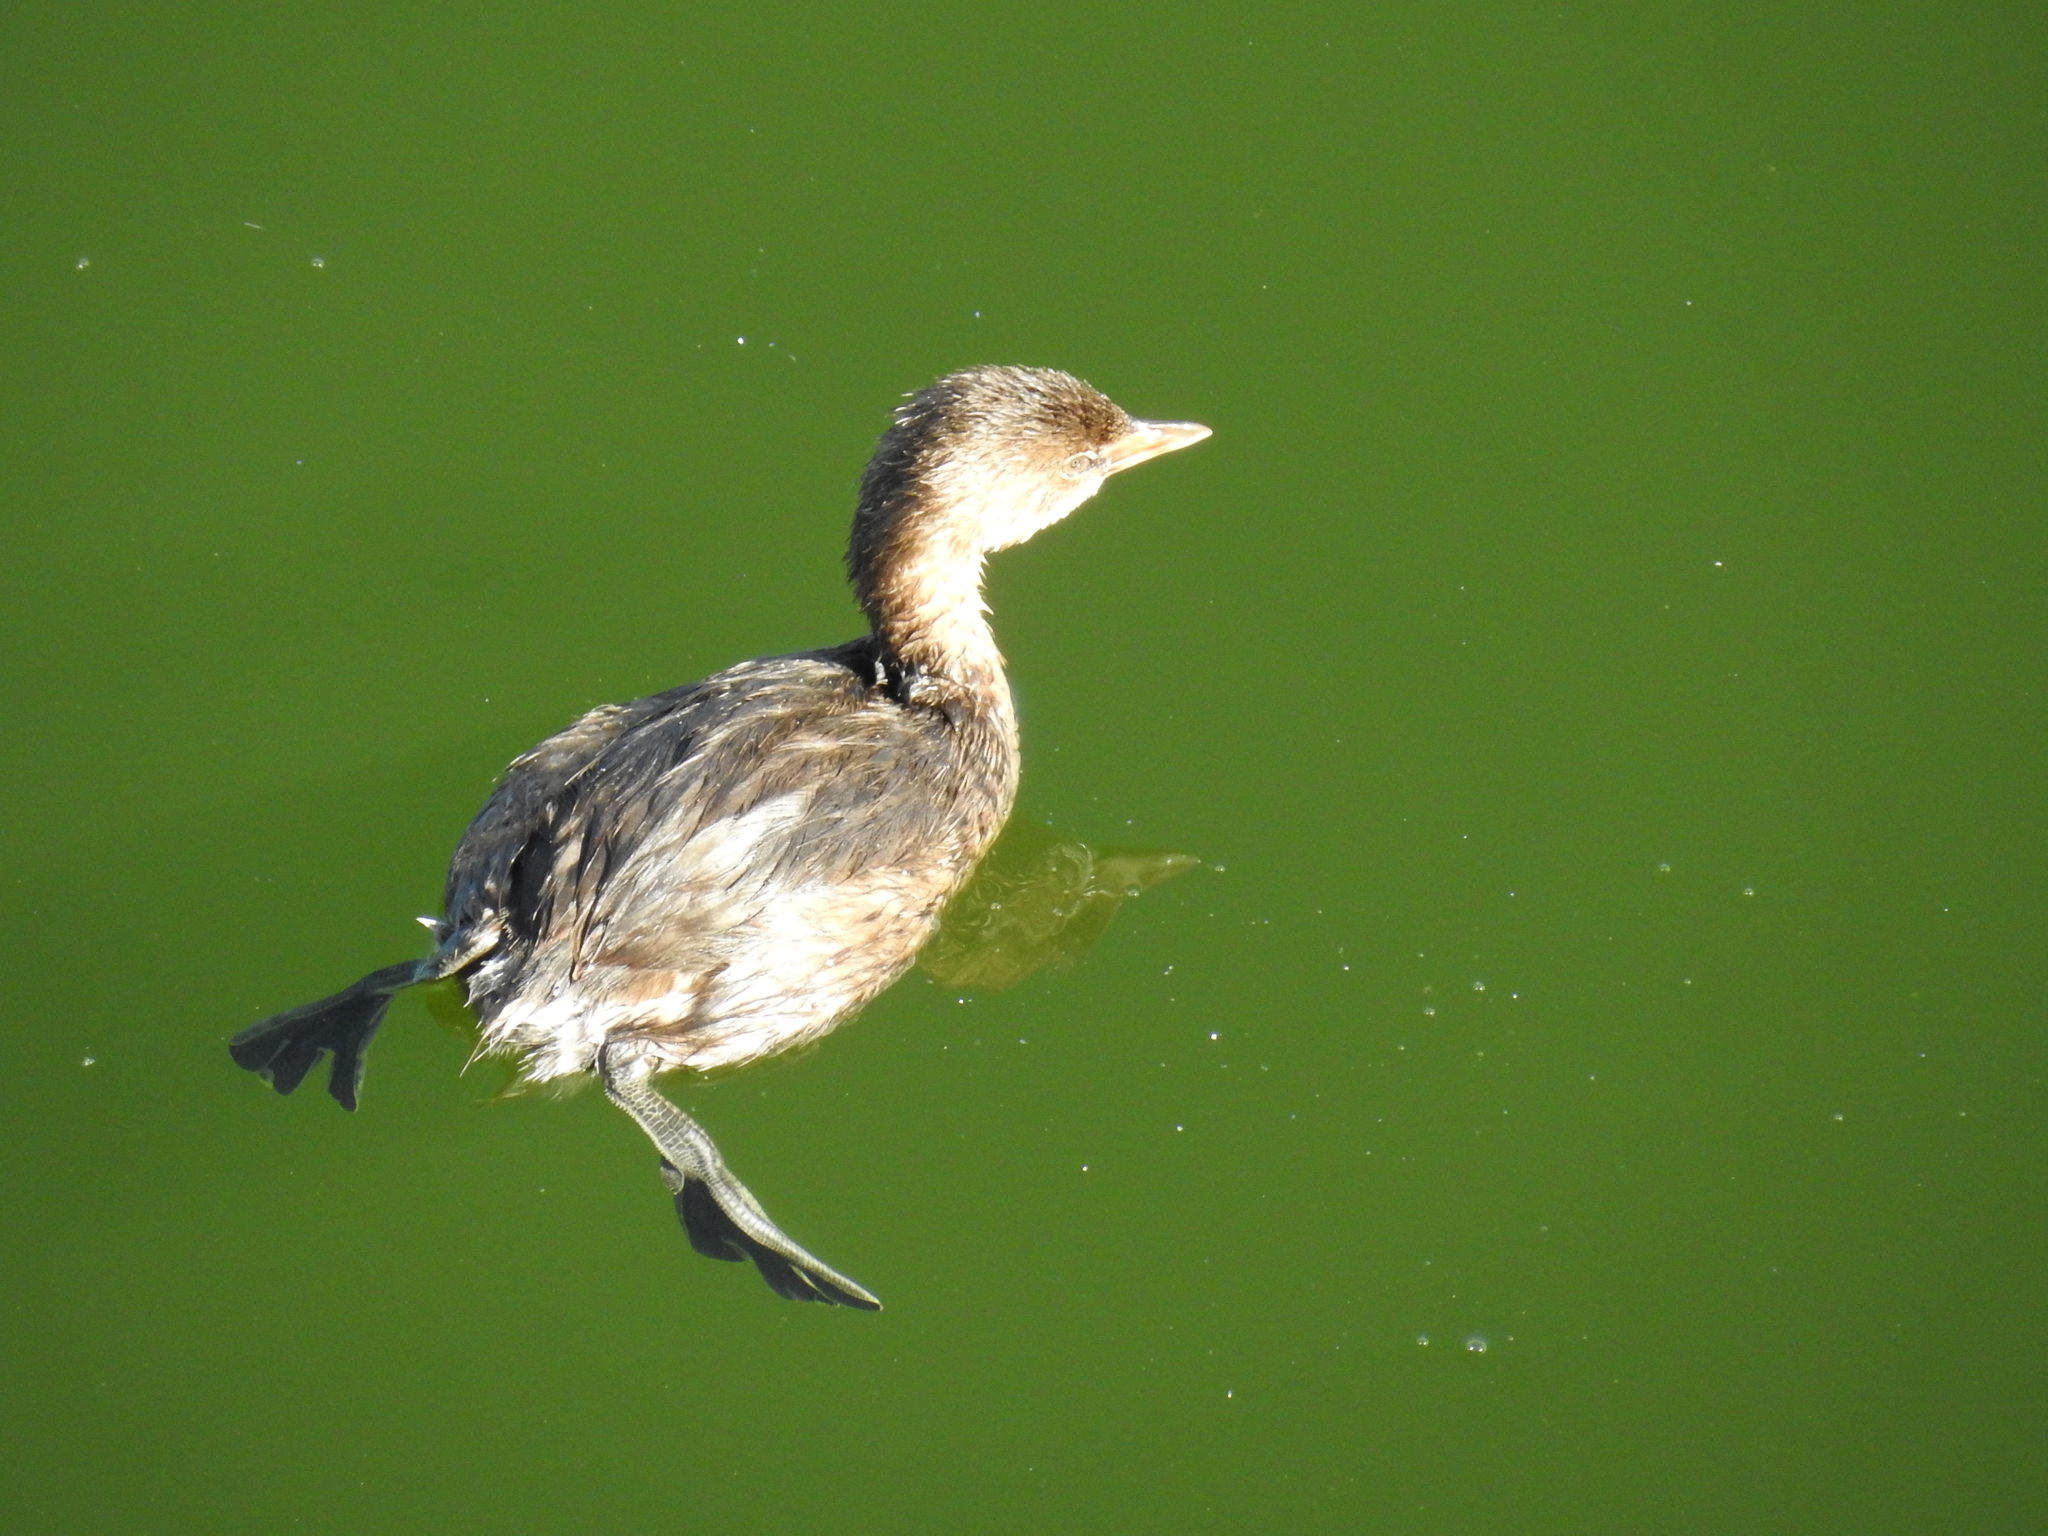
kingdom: Animalia
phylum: Chordata
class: Aves
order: Podicipediformes
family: Podicipedidae
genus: Podilymbus
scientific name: Podilymbus podiceps
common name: Pied-billed grebe
